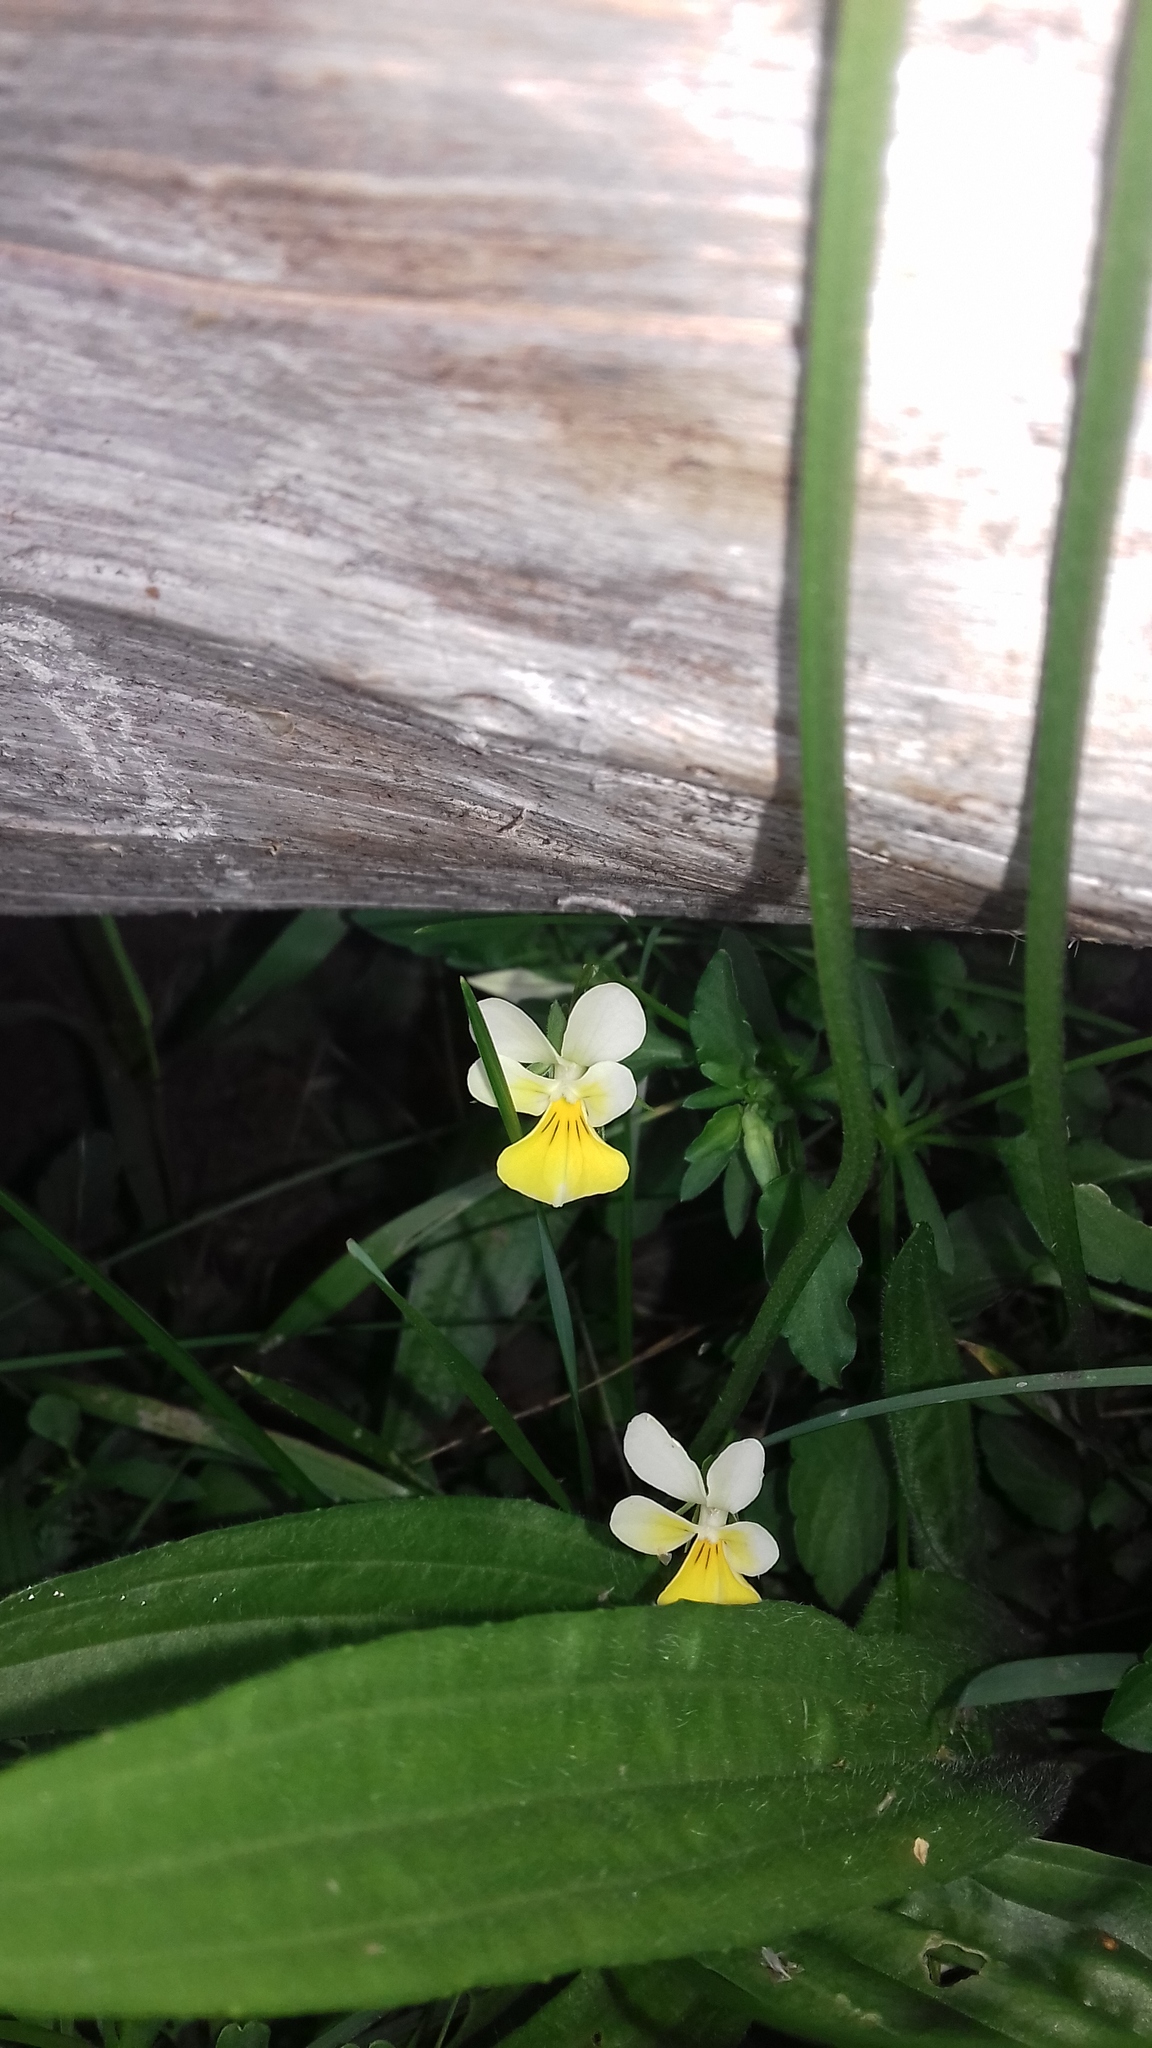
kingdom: Plantae
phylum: Tracheophyta
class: Magnoliopsida
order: Malpighiales
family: Violaceae
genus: Viola
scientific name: Viola arvensis
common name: Field pansy
